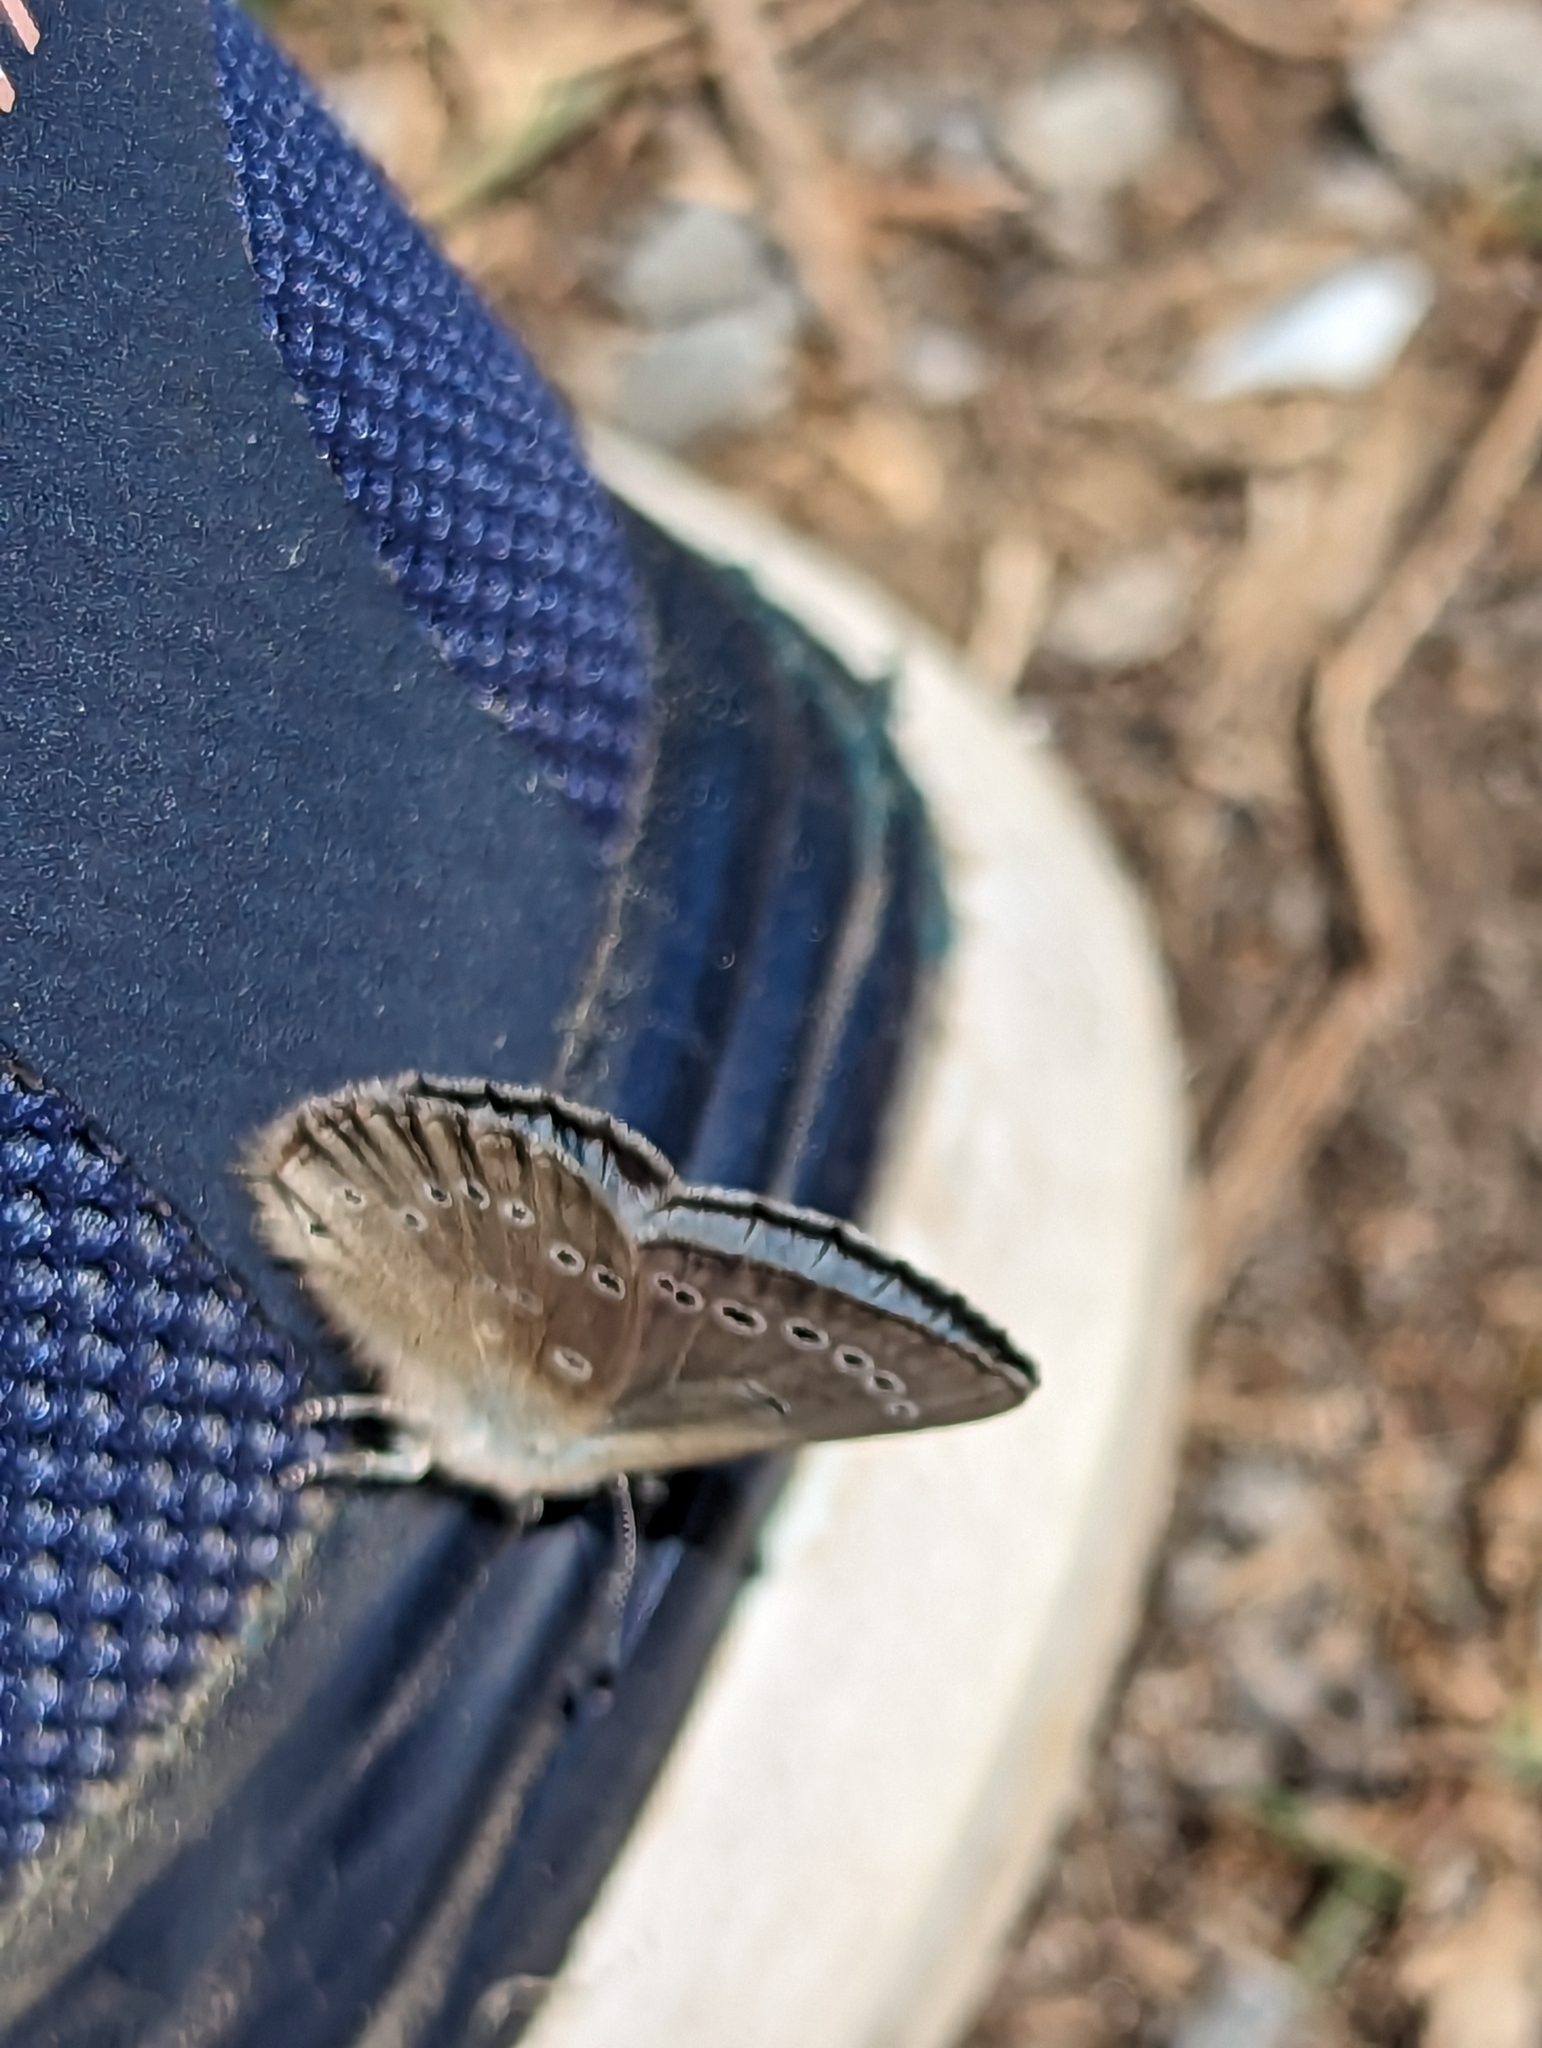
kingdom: Animalia
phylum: Arthropoda
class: Insecta
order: Lepidoptera
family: Lycaenidae
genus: Glaucopsyche
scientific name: Glaucopsyche lygdamus
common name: Silvery blue
